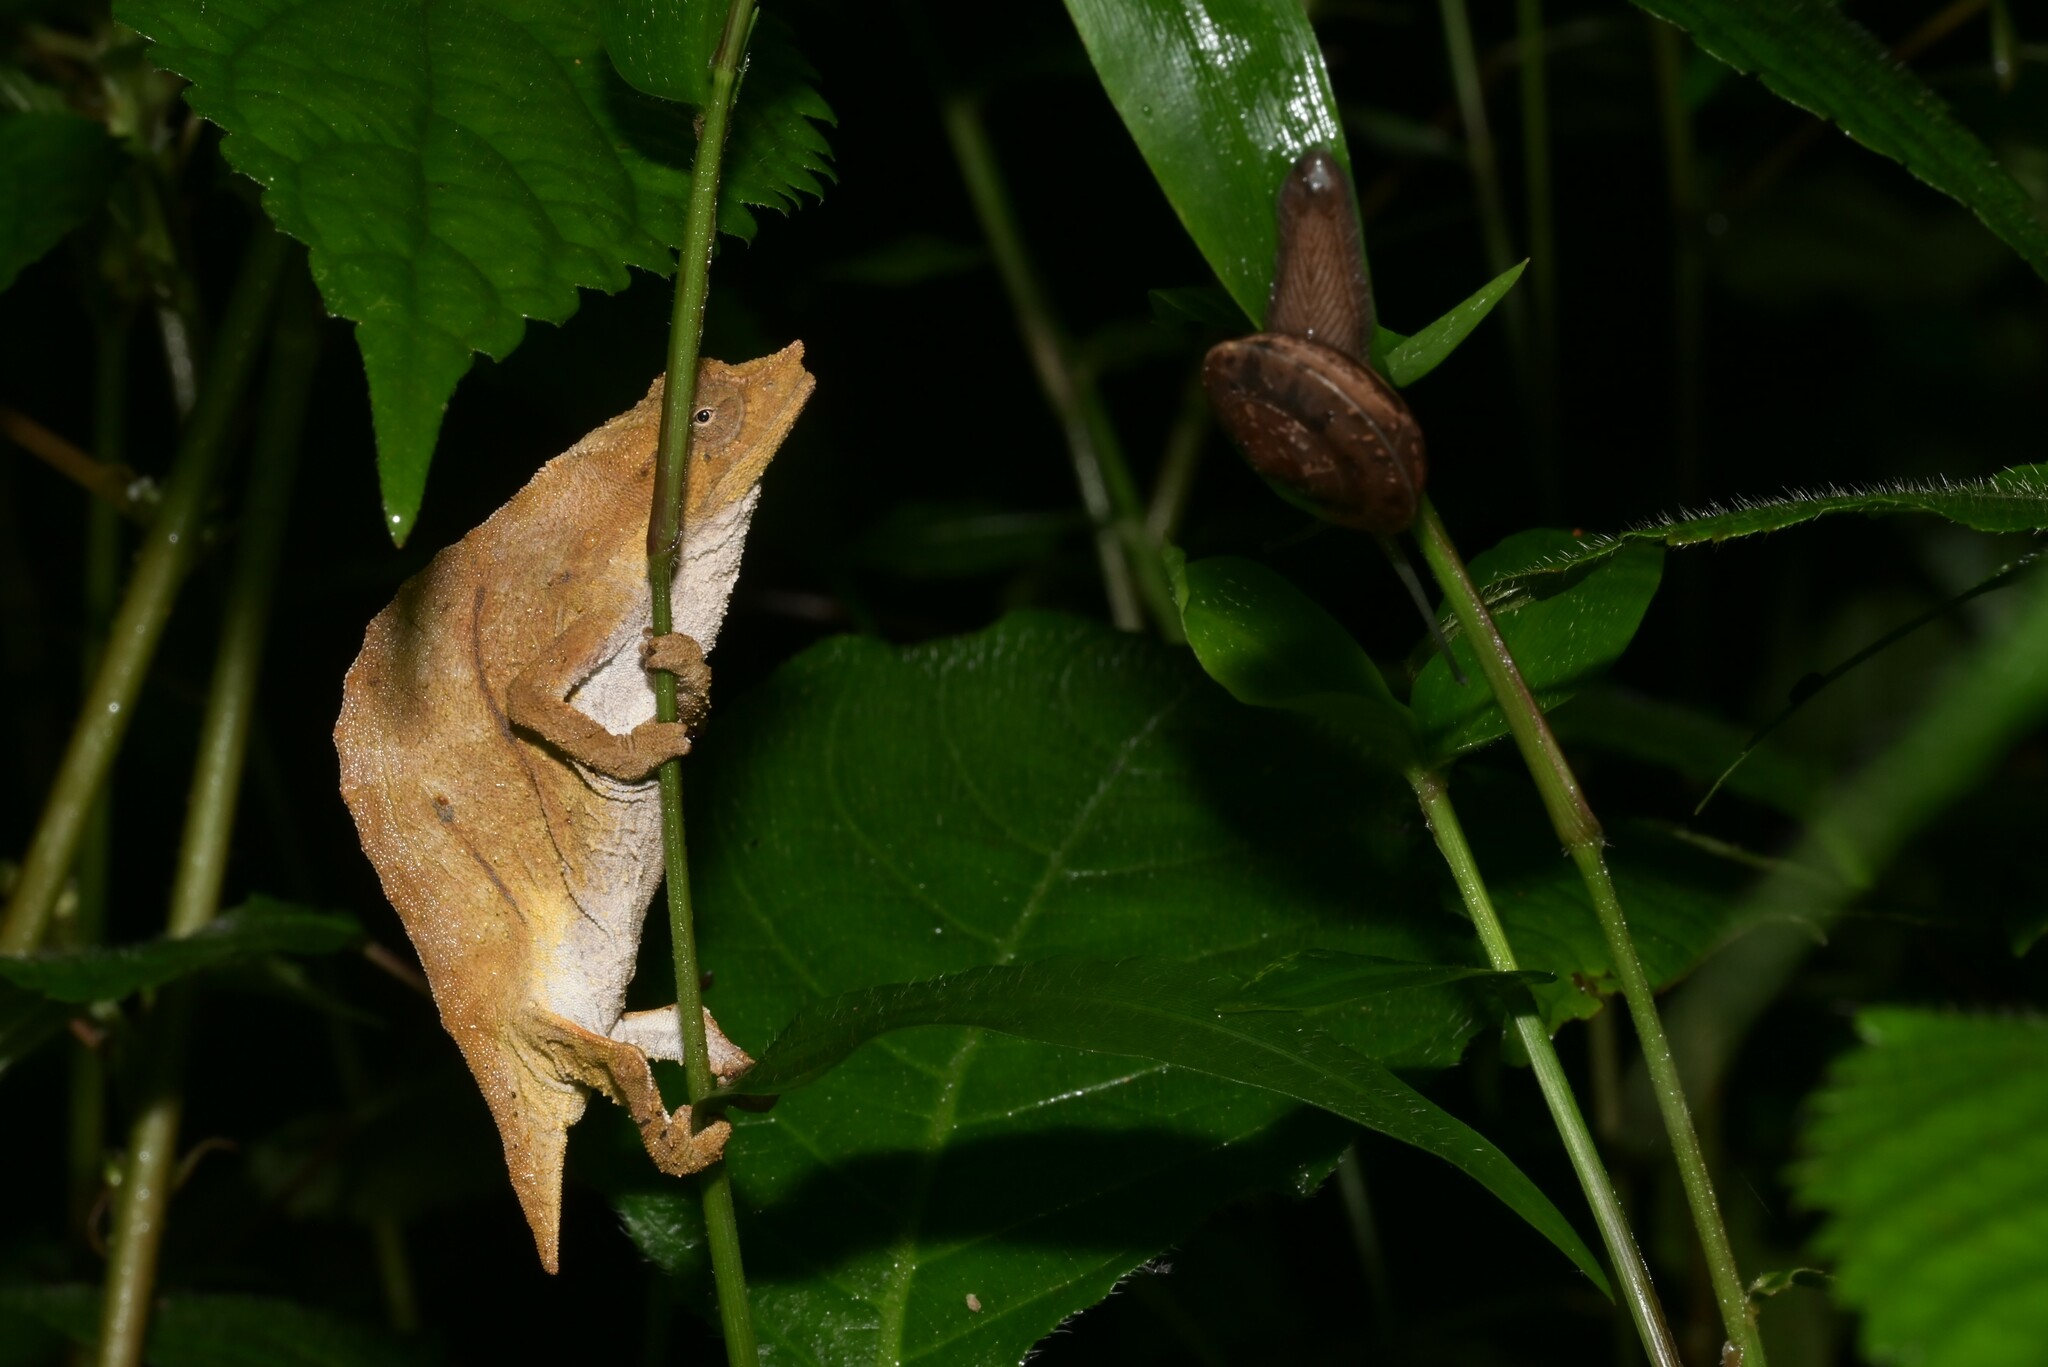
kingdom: Animalia
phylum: Chordata
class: Squamata
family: Chamaeleonidae
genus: Rhampholeon
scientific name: Rhampholeon nchisiensis
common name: South african stumptail chameleon
